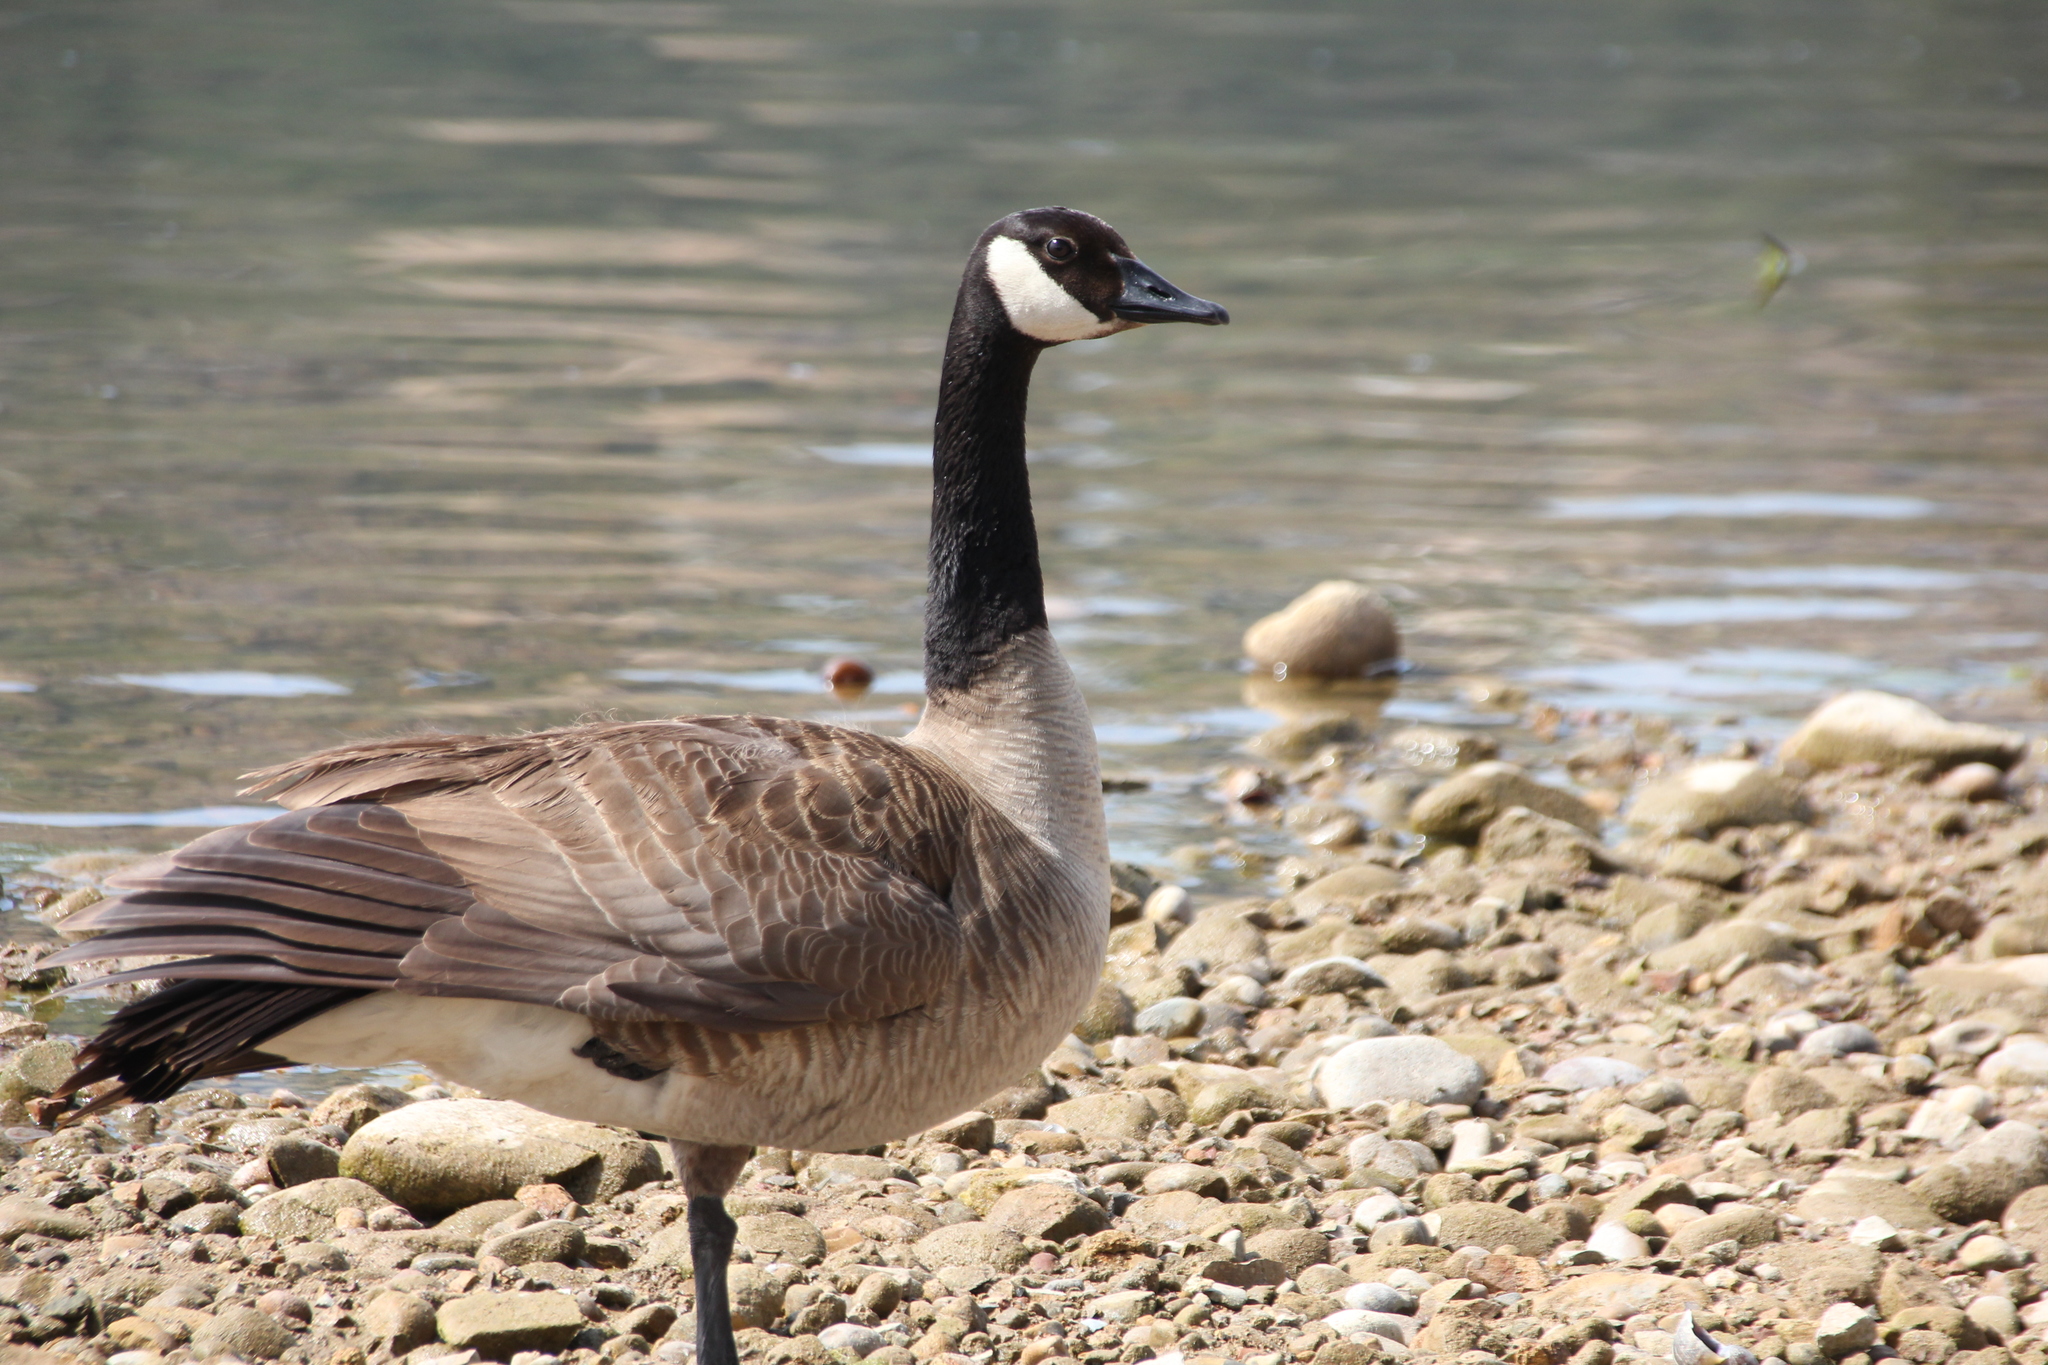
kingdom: Animalia
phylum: Chordata
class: Aves
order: Anseriformes
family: Anatidae
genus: Branta
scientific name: Branta canadensis
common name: Canada goose
